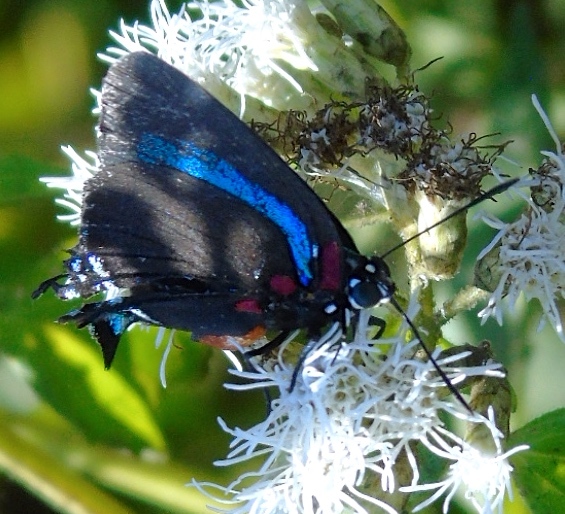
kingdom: Animalia
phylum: Arthropoda
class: Insecta
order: Lepidoptera
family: Lycaenidae
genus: Atlides
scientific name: Atlides halesus
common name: Great purple hairstreak
